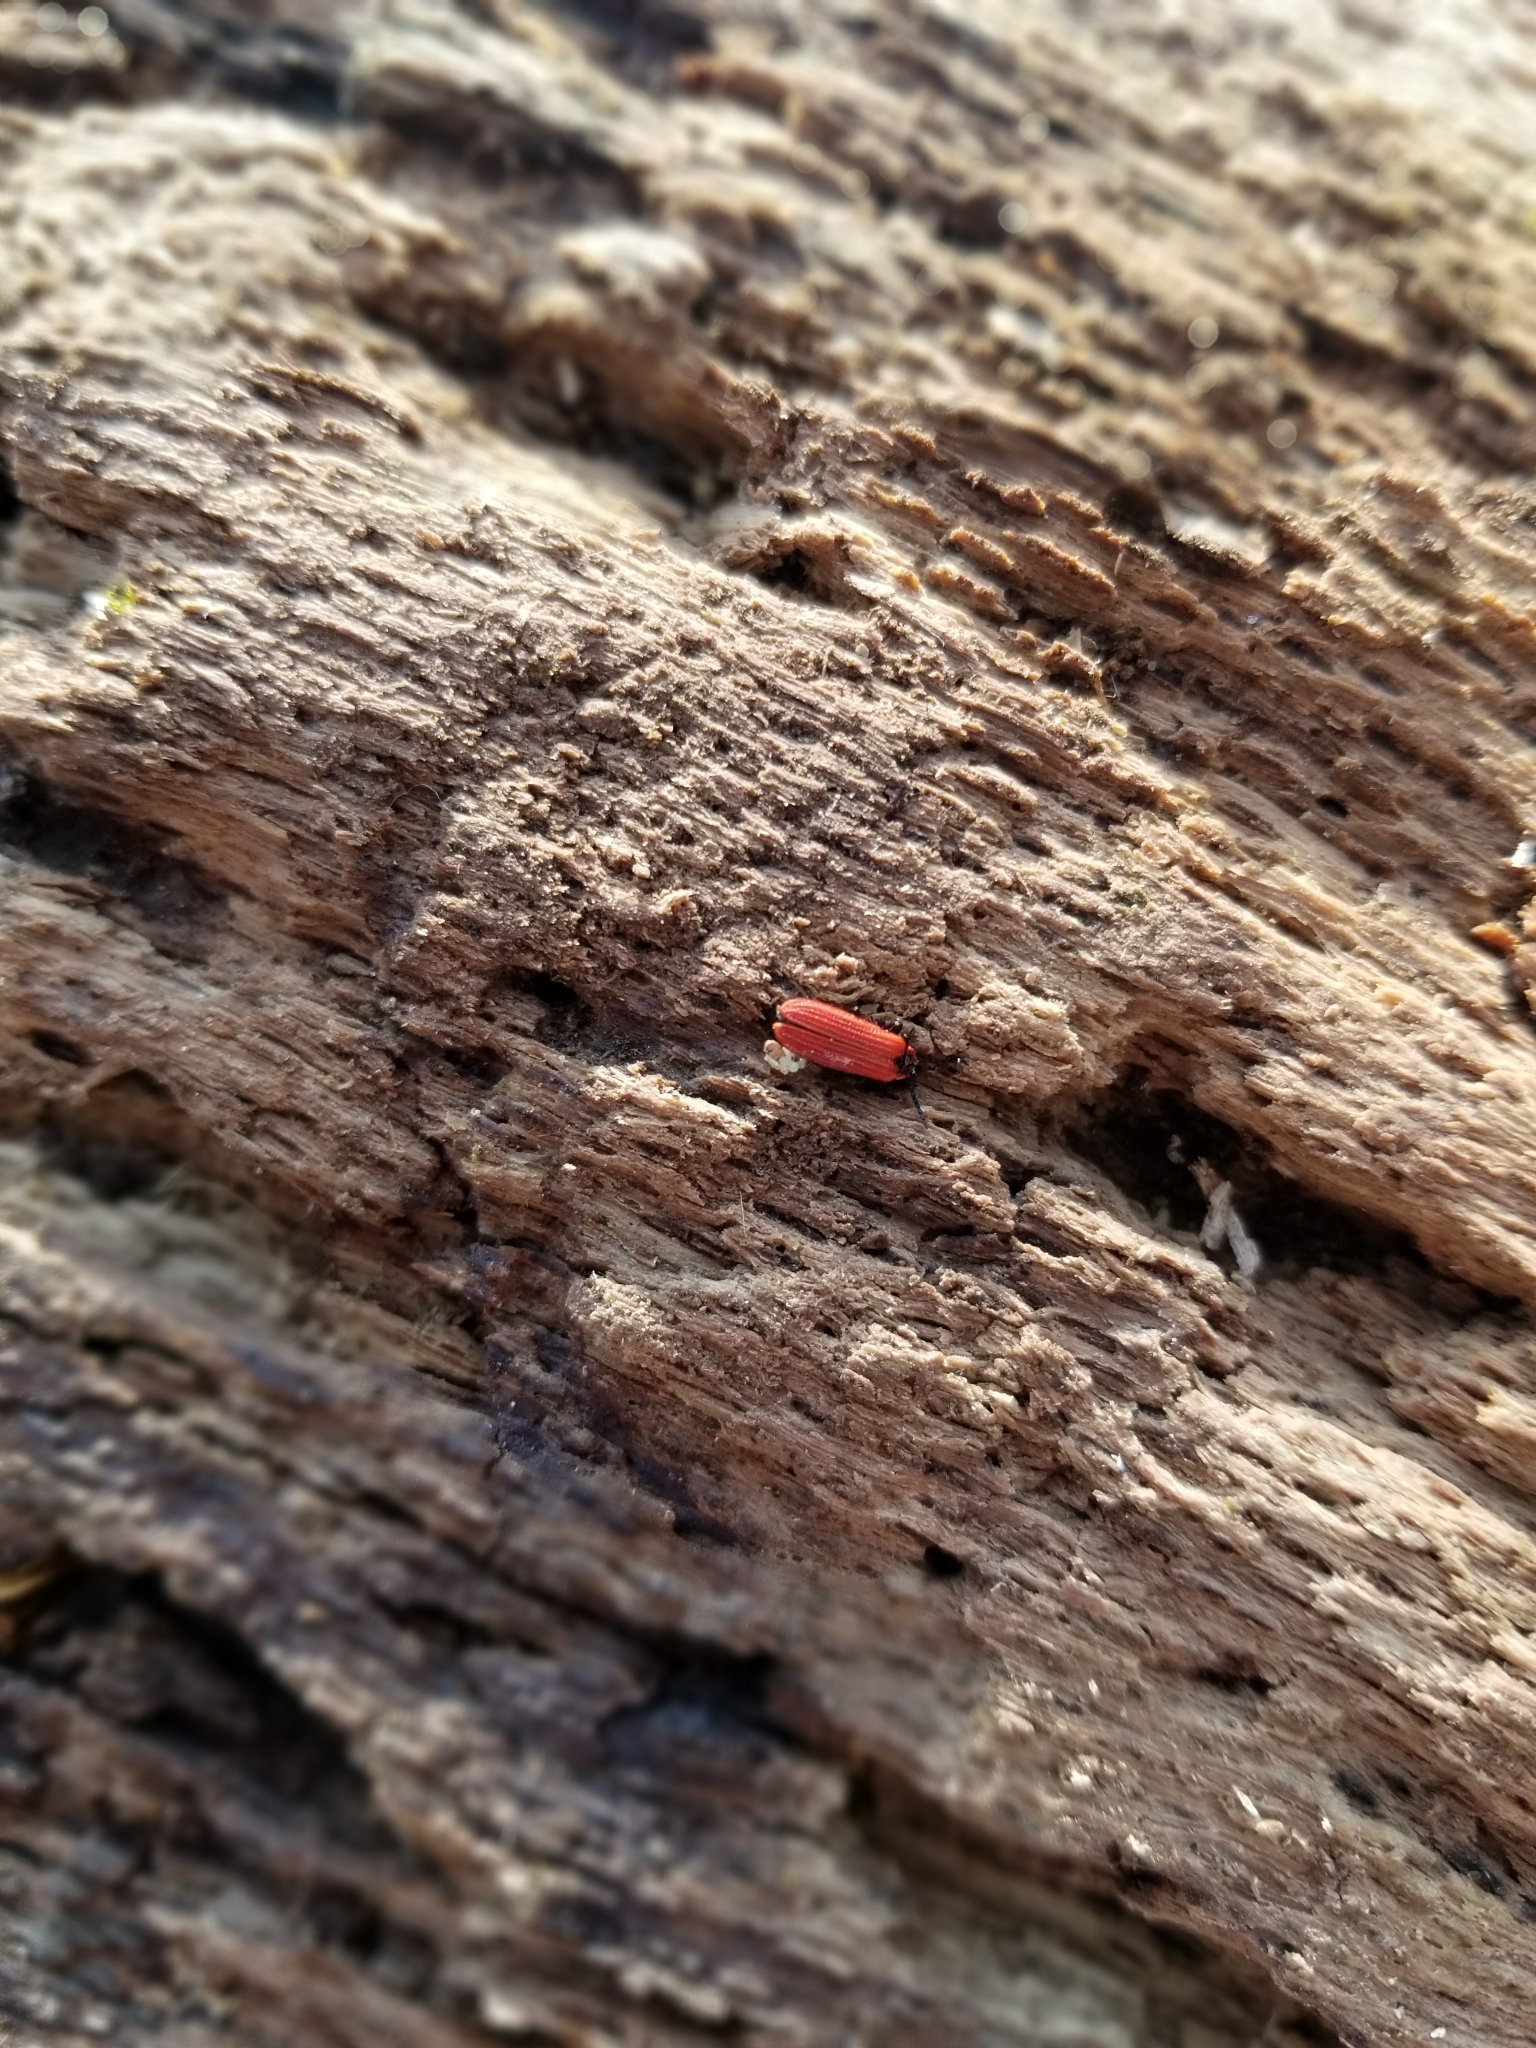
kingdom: Animalia
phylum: Arthropoda
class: Insecta
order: Coleoptera
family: Lycidae
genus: Dictyoptera
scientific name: Dictyoptera aurora
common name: Golden net-winged beetle
